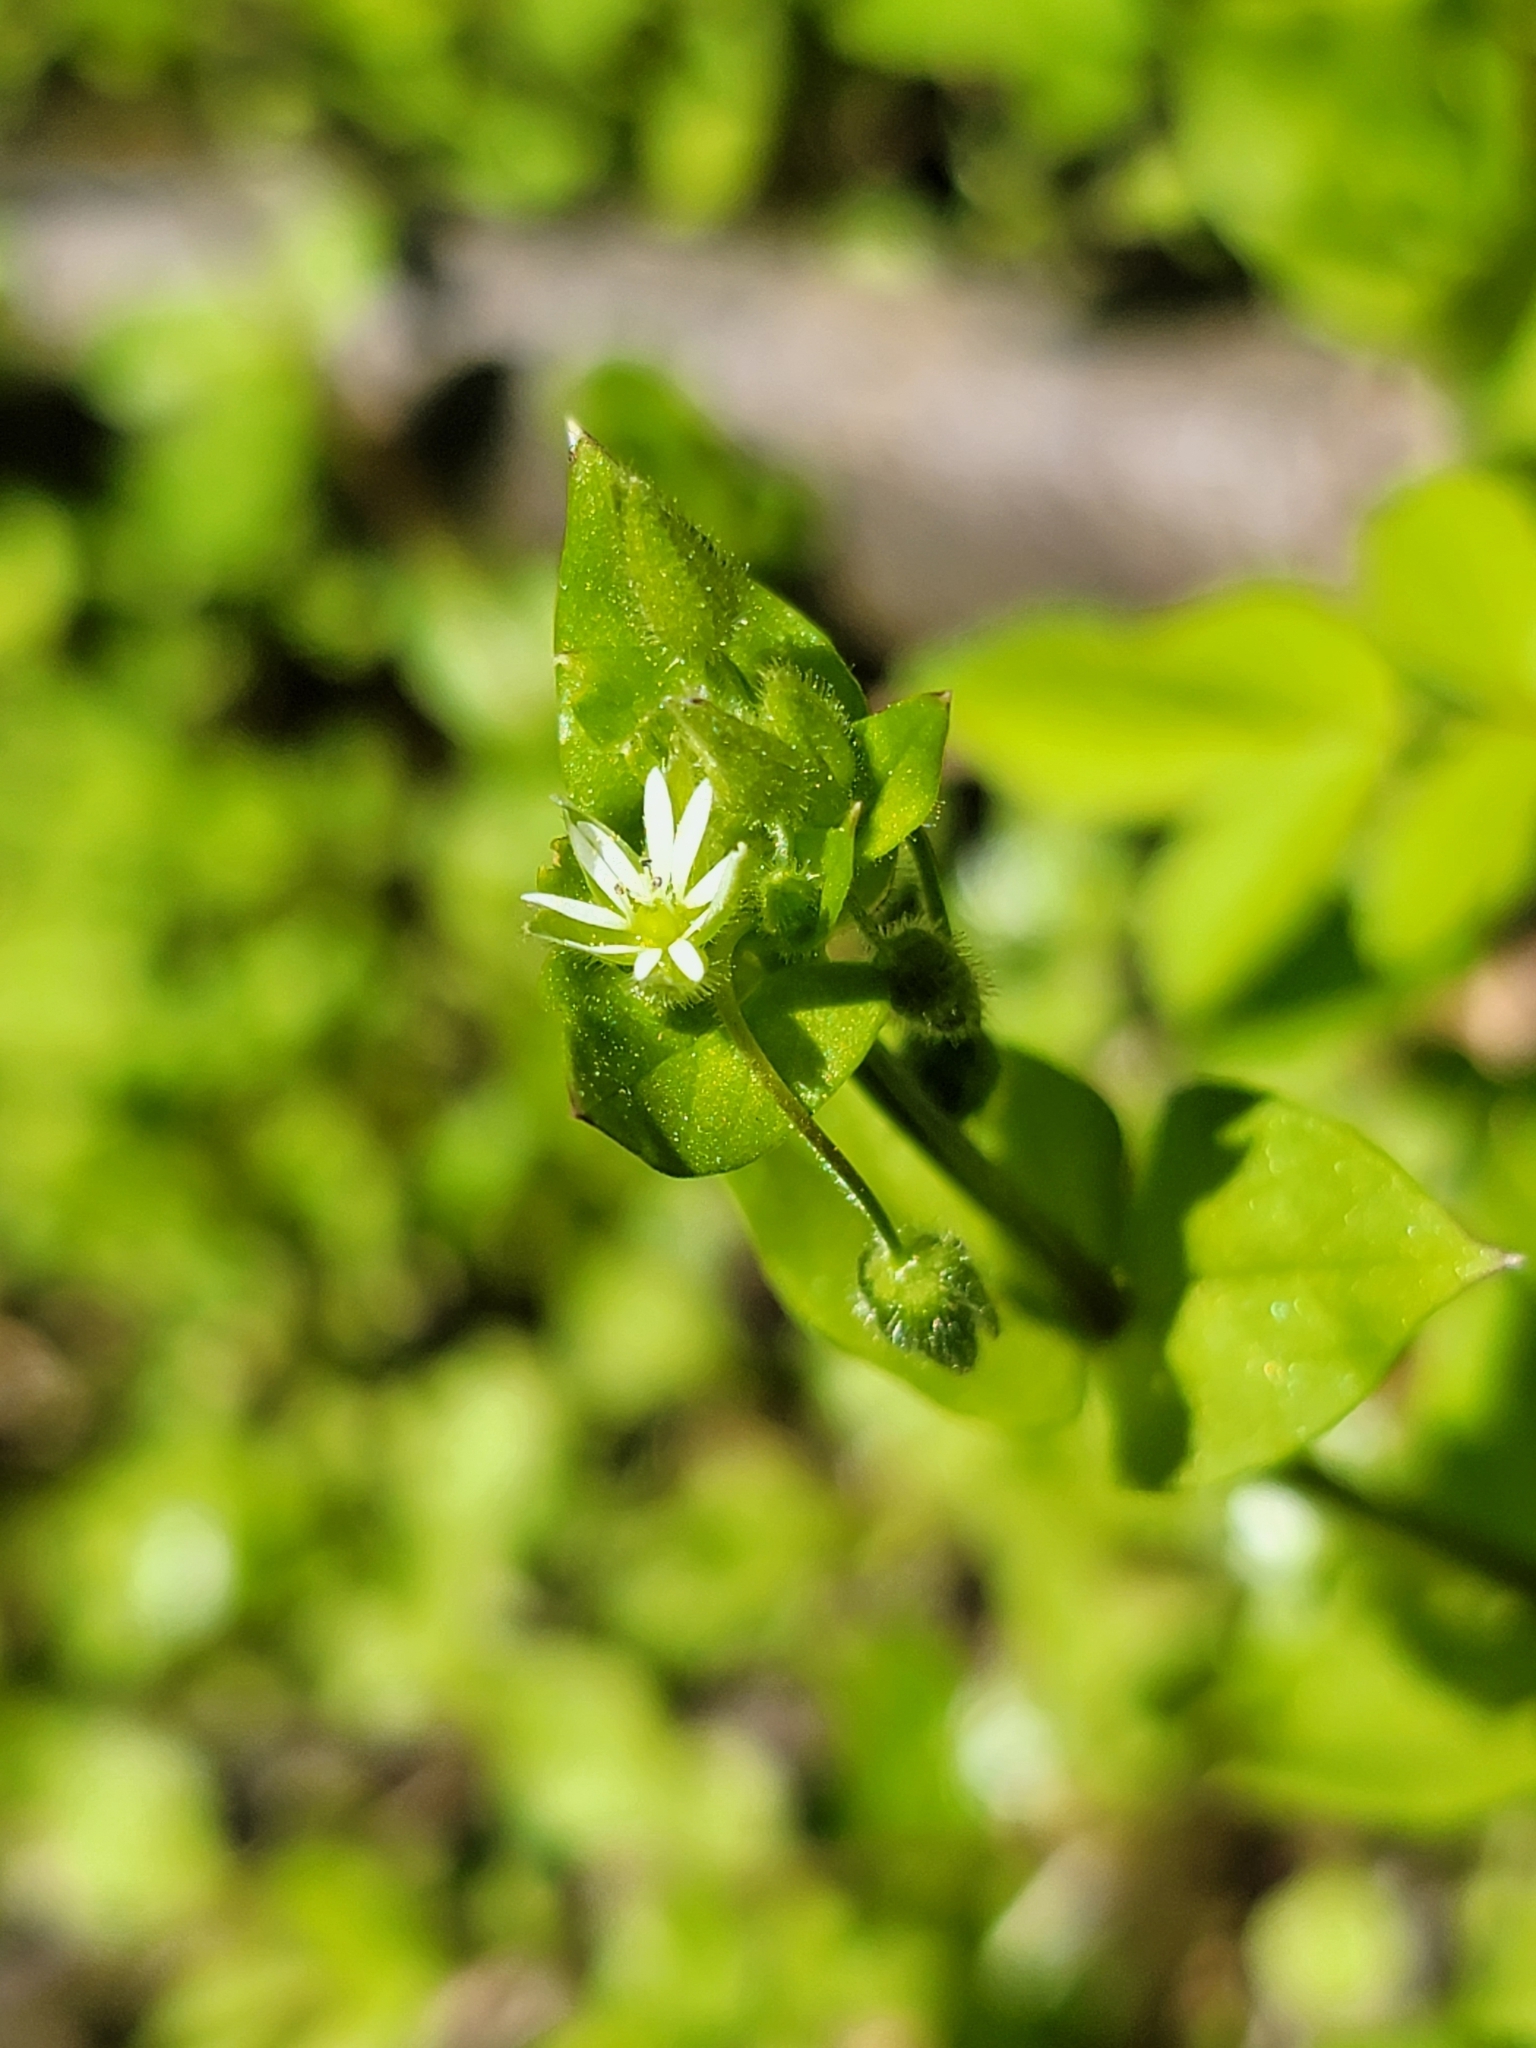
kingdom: Plantae
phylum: Tracheophyta
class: Magnoliopsida
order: Caryophyllales
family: Caryophyllaceae
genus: Stellaria
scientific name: Stellaria media
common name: Common chickweed
